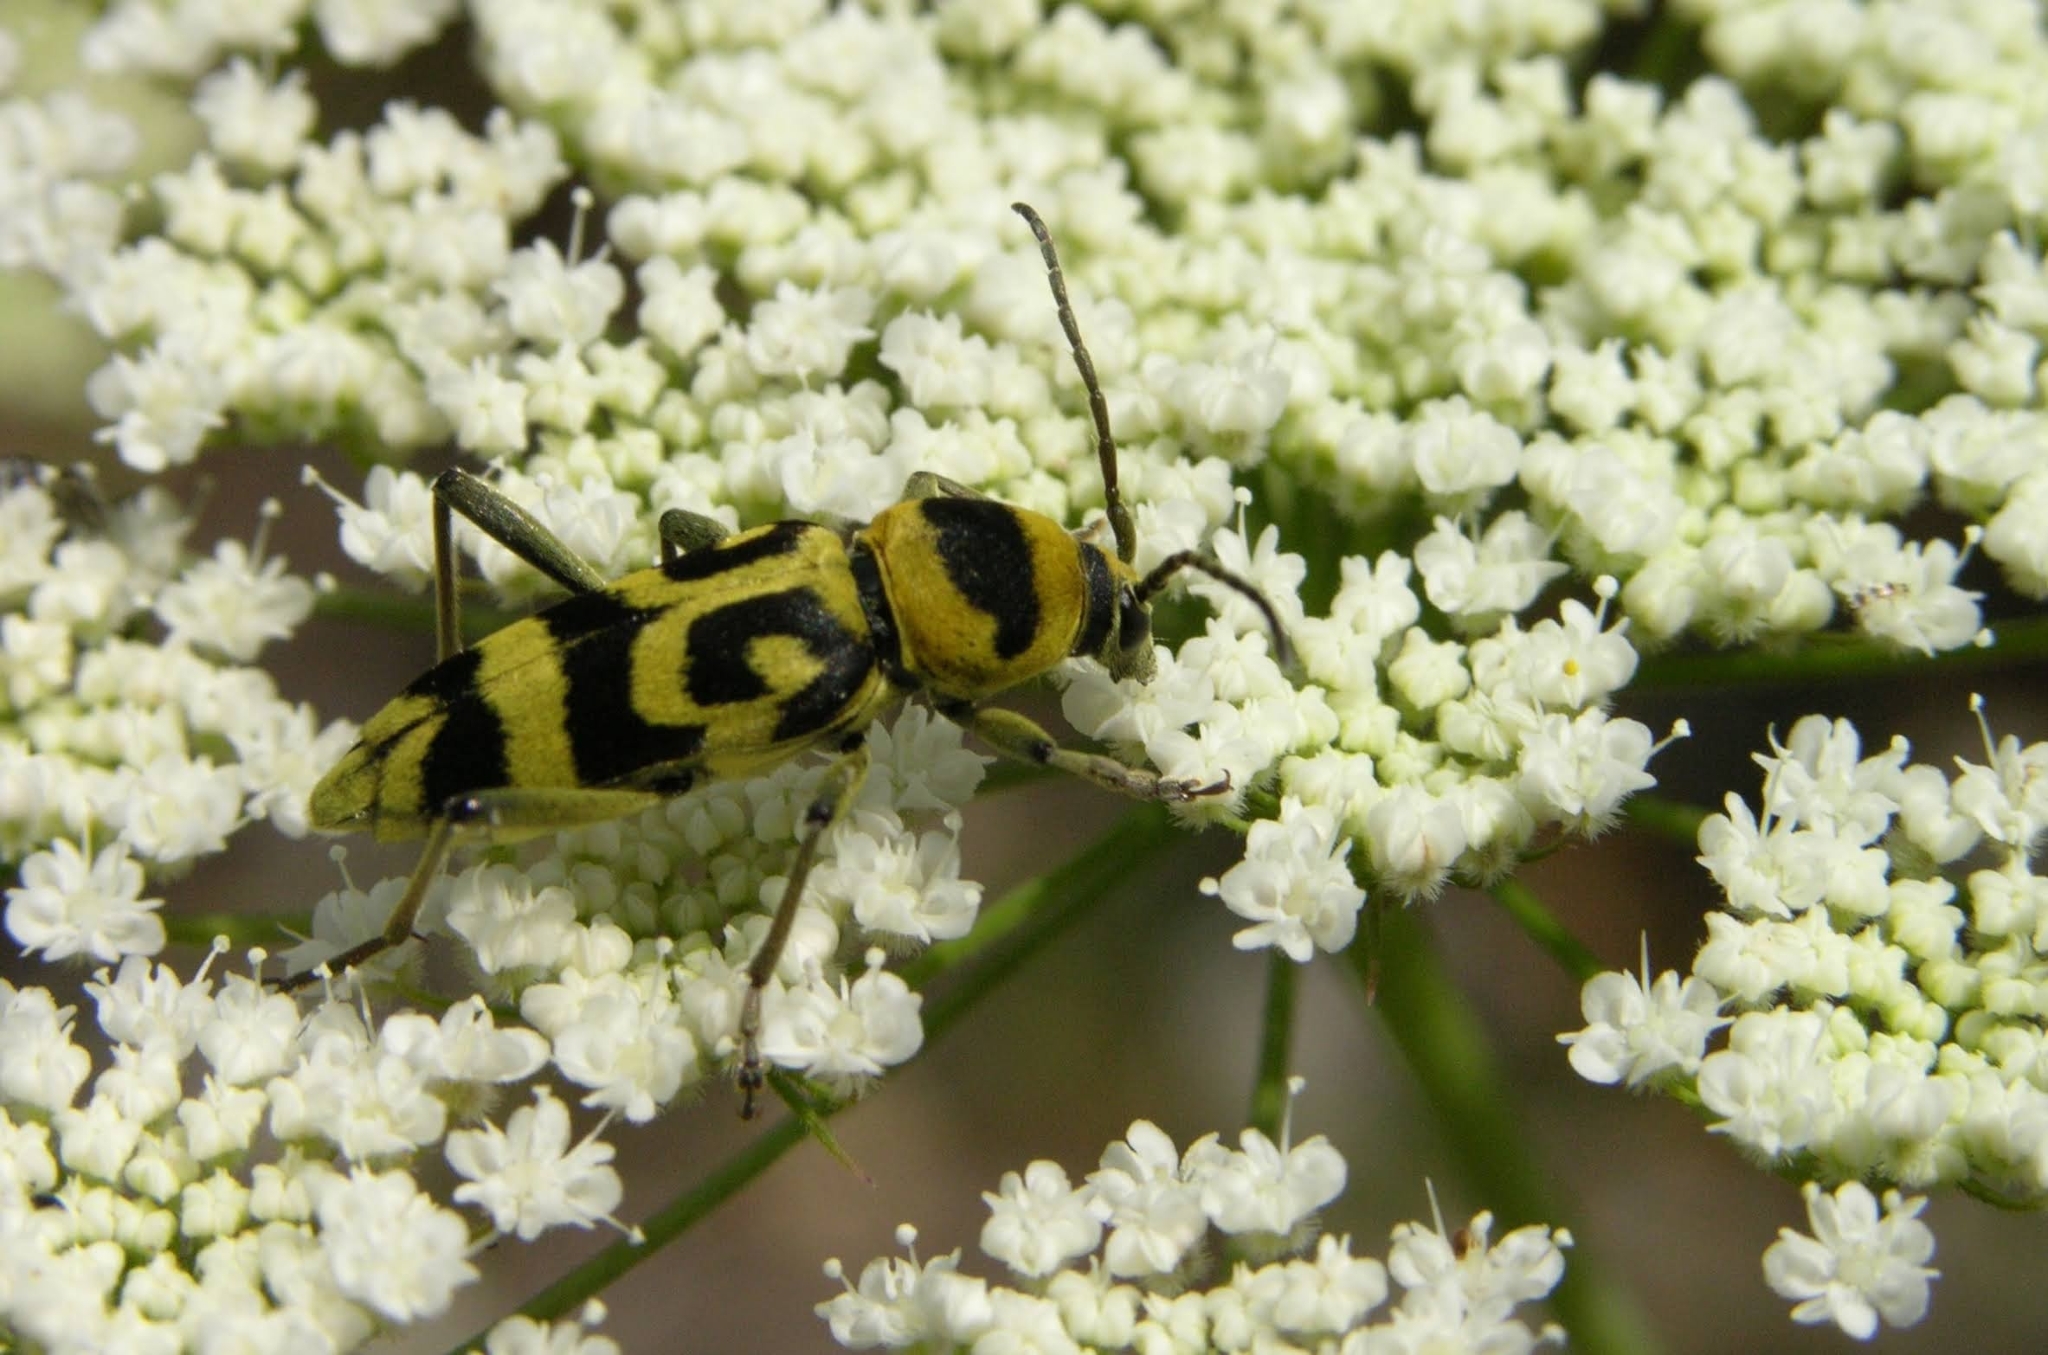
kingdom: Animalia
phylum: Arthropoda
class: Insecta
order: Coleoptera
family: Cerambycidae
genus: Chlorophorus
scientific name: Chlorophorus varius
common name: Grape wood borer
